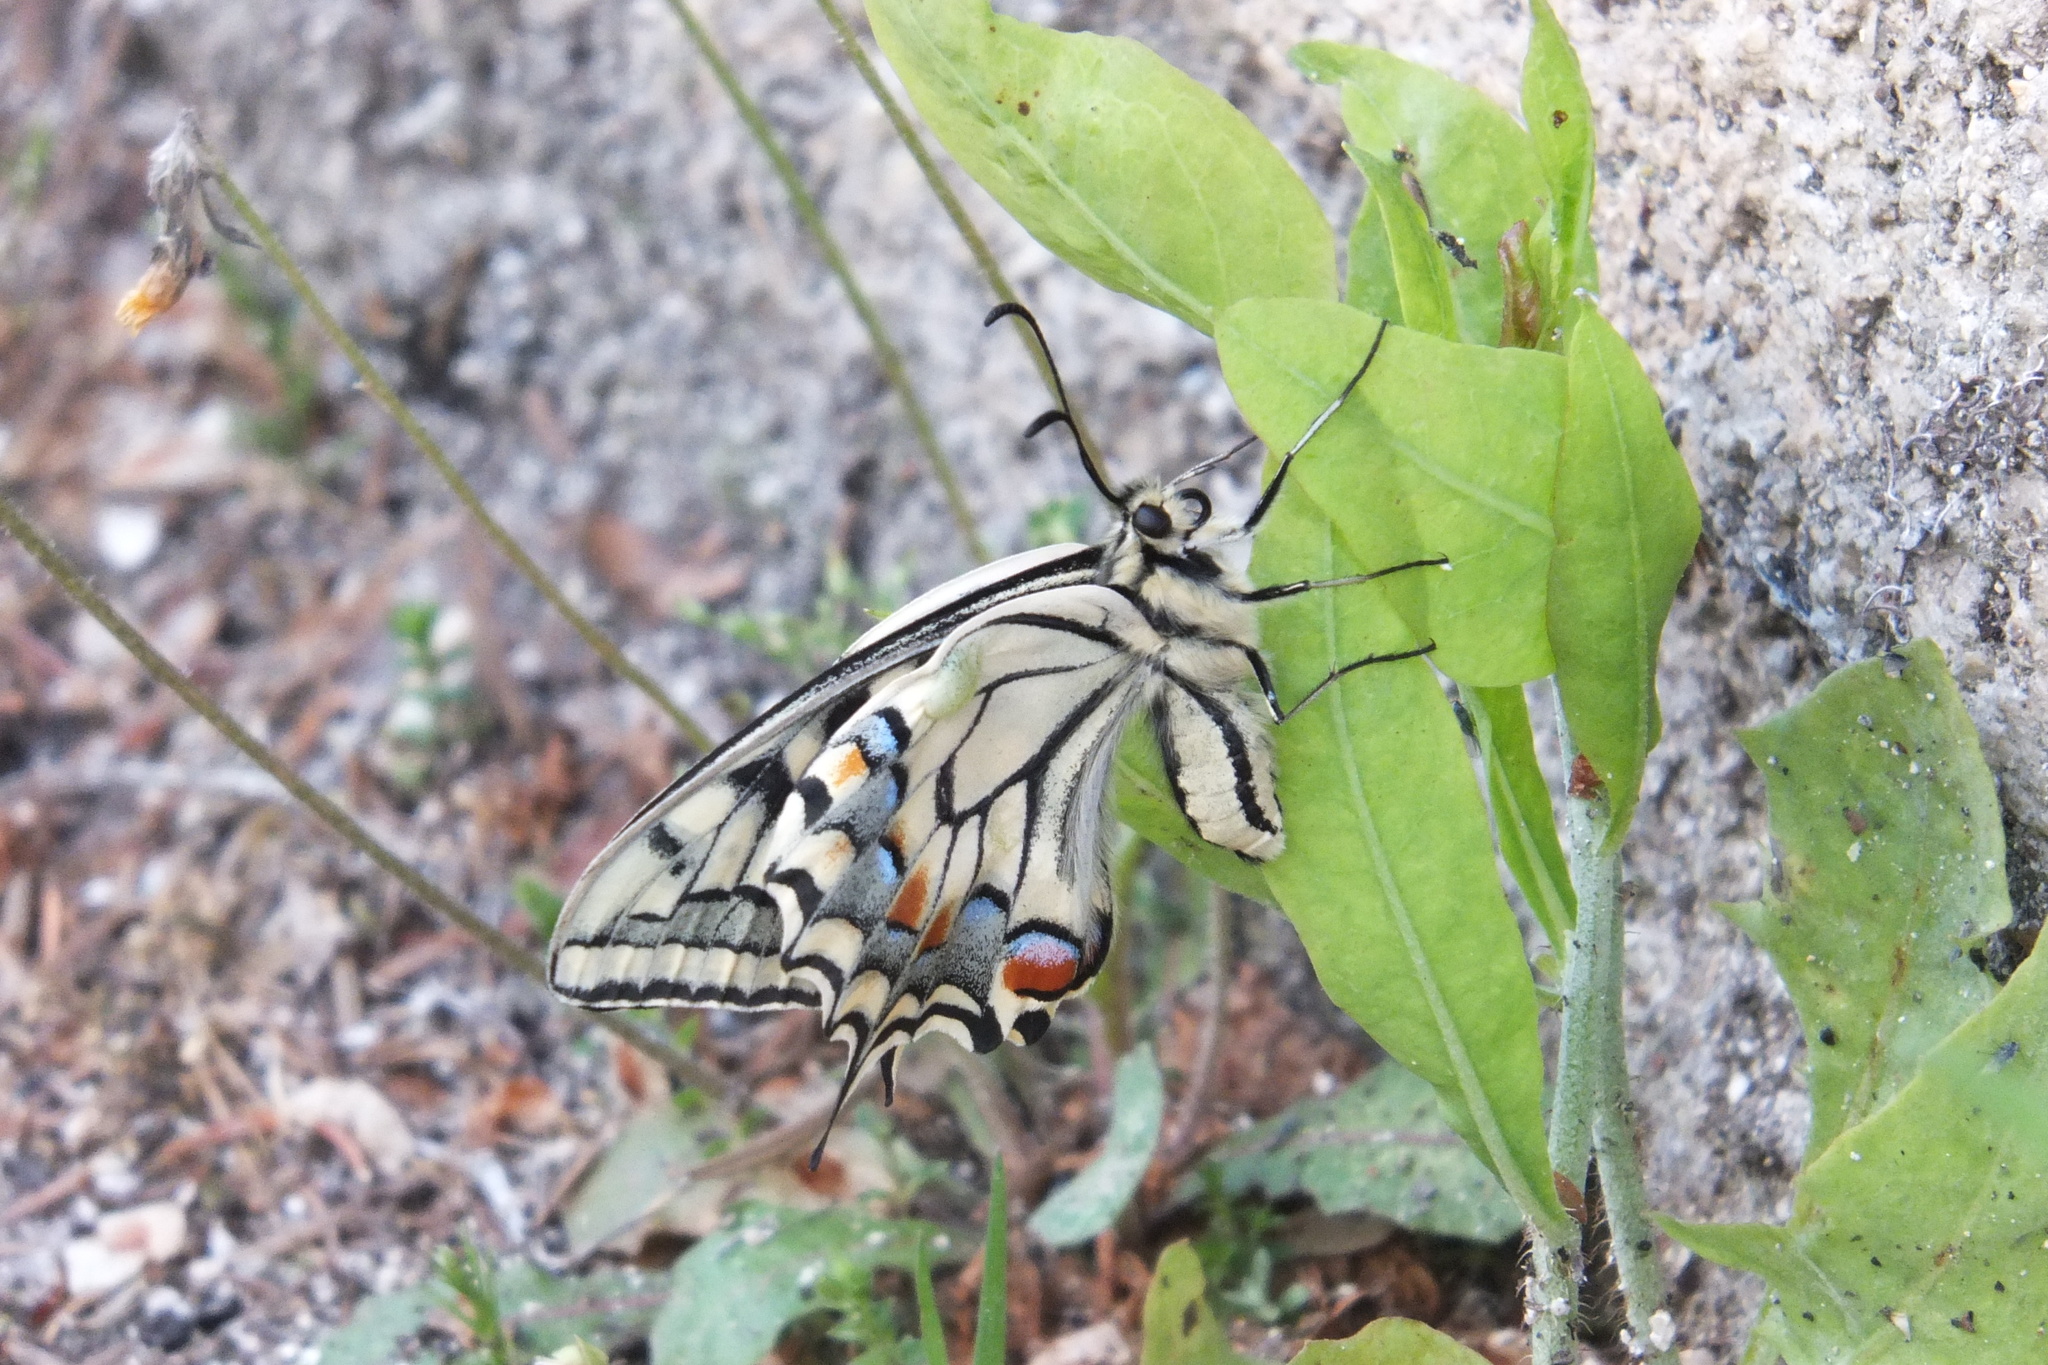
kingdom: Animalia
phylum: Arthropoda
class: Insecta
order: Lepidoptera
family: Papilionidae
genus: Papilio
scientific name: Papilio machaon
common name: Swallowtail
